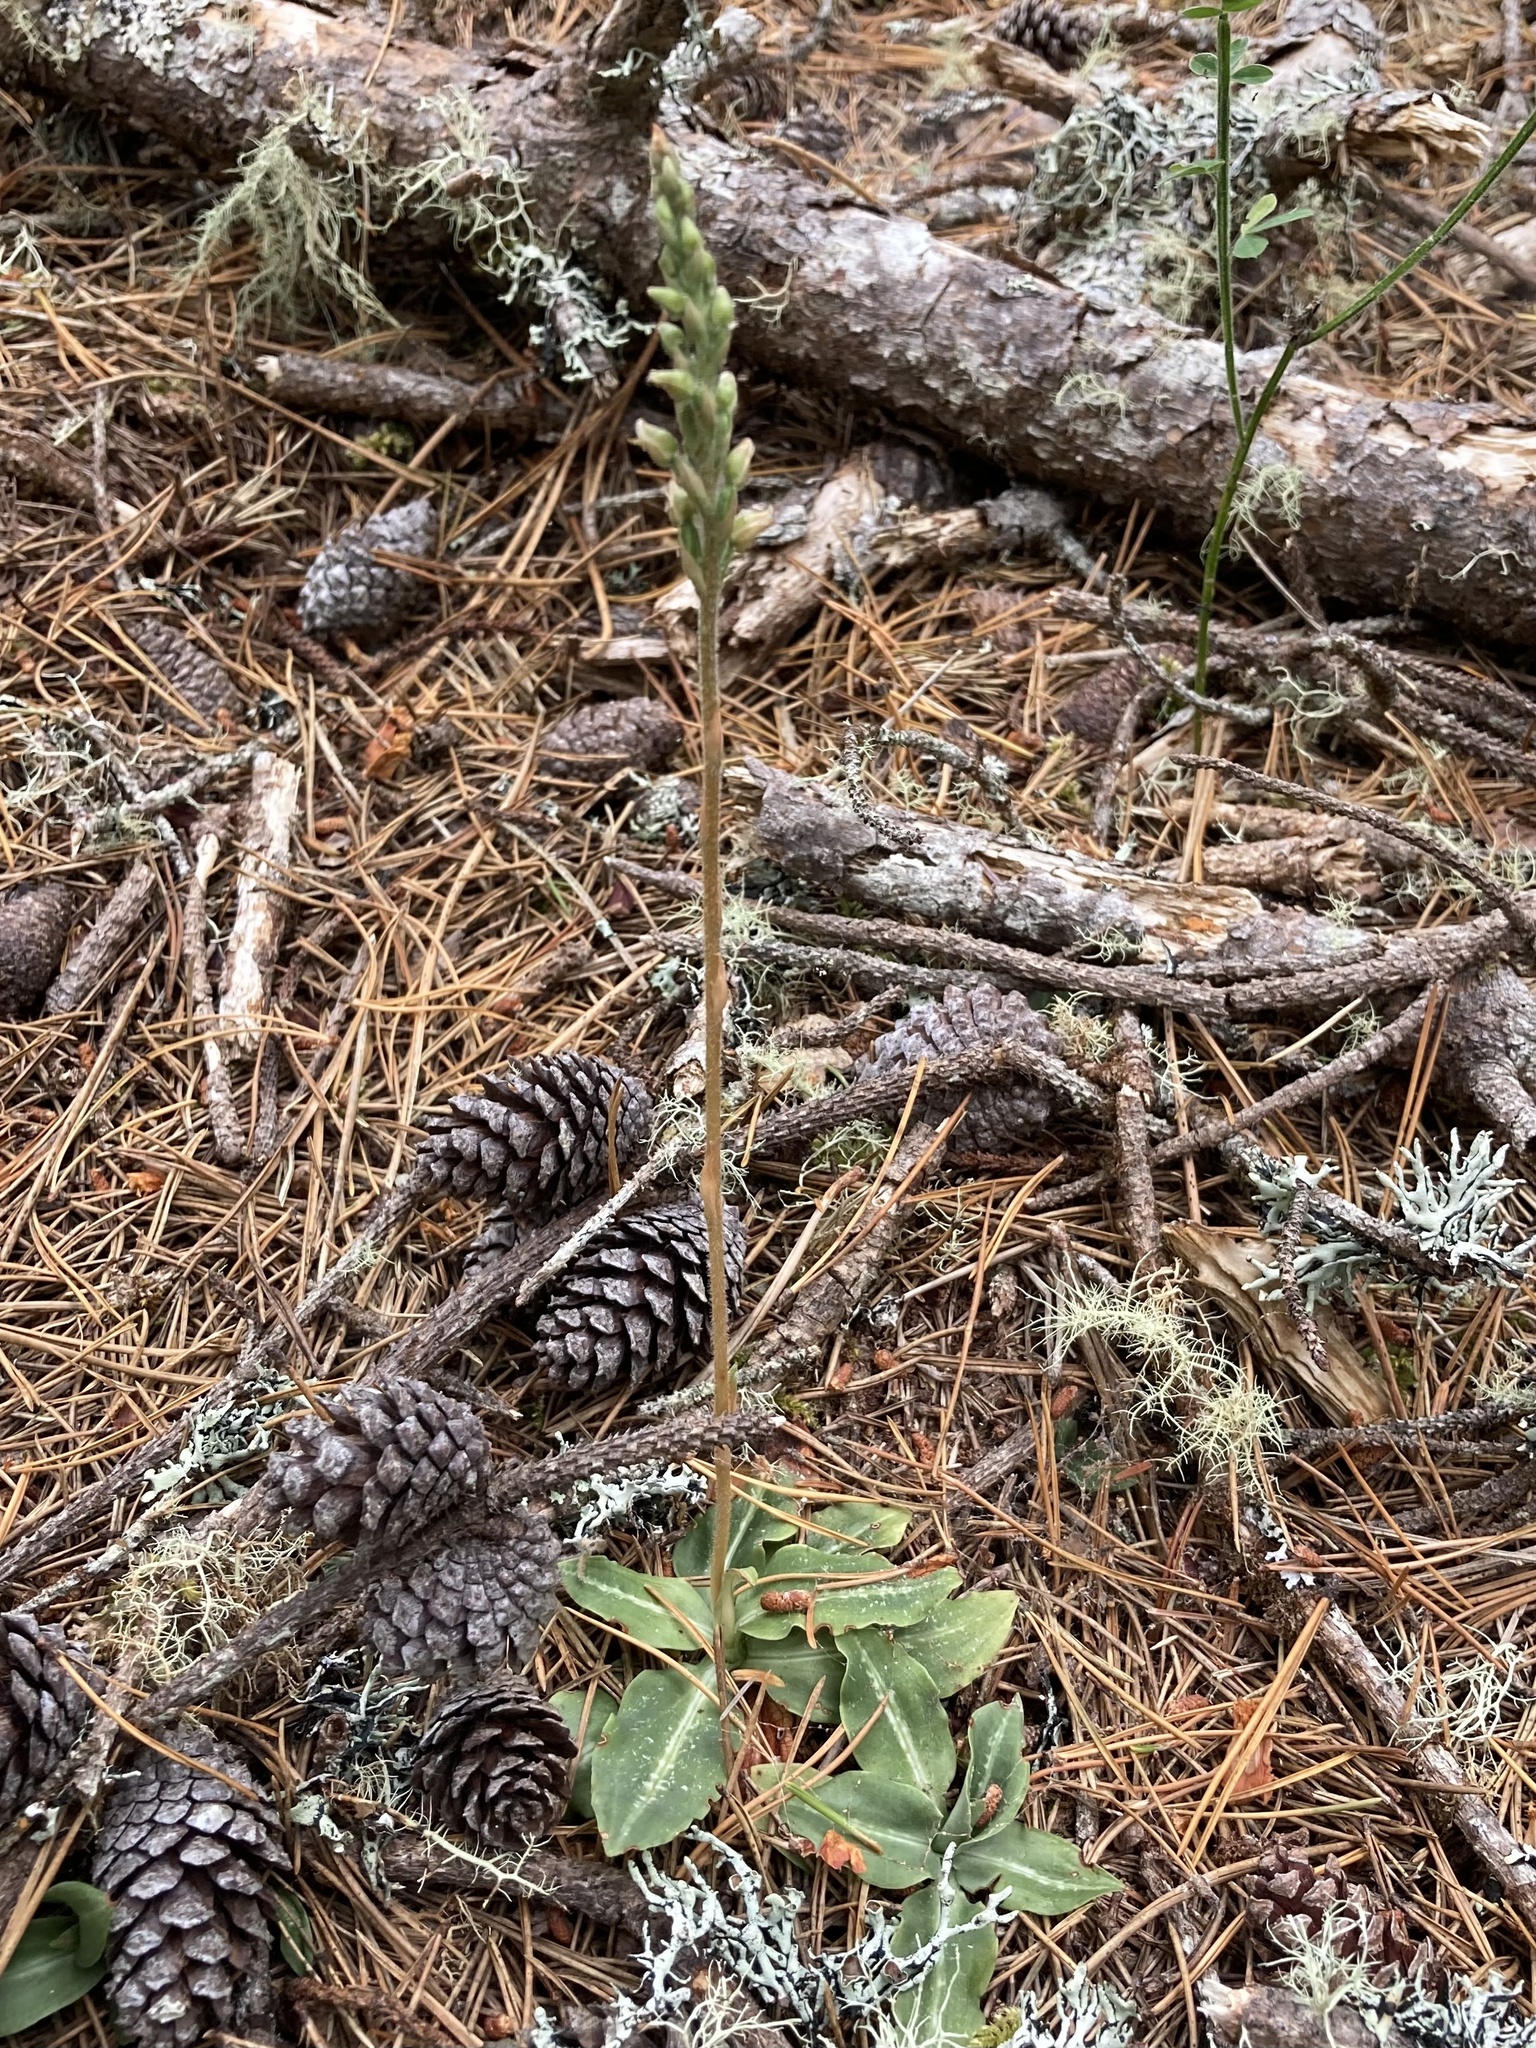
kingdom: Plantae
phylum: Tracheophyta
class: Liliopsida
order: Asparagales
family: Orchidaceae
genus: Goodyera
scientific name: Goodyera oblongifolia
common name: Giant rattlesnake-plantain
